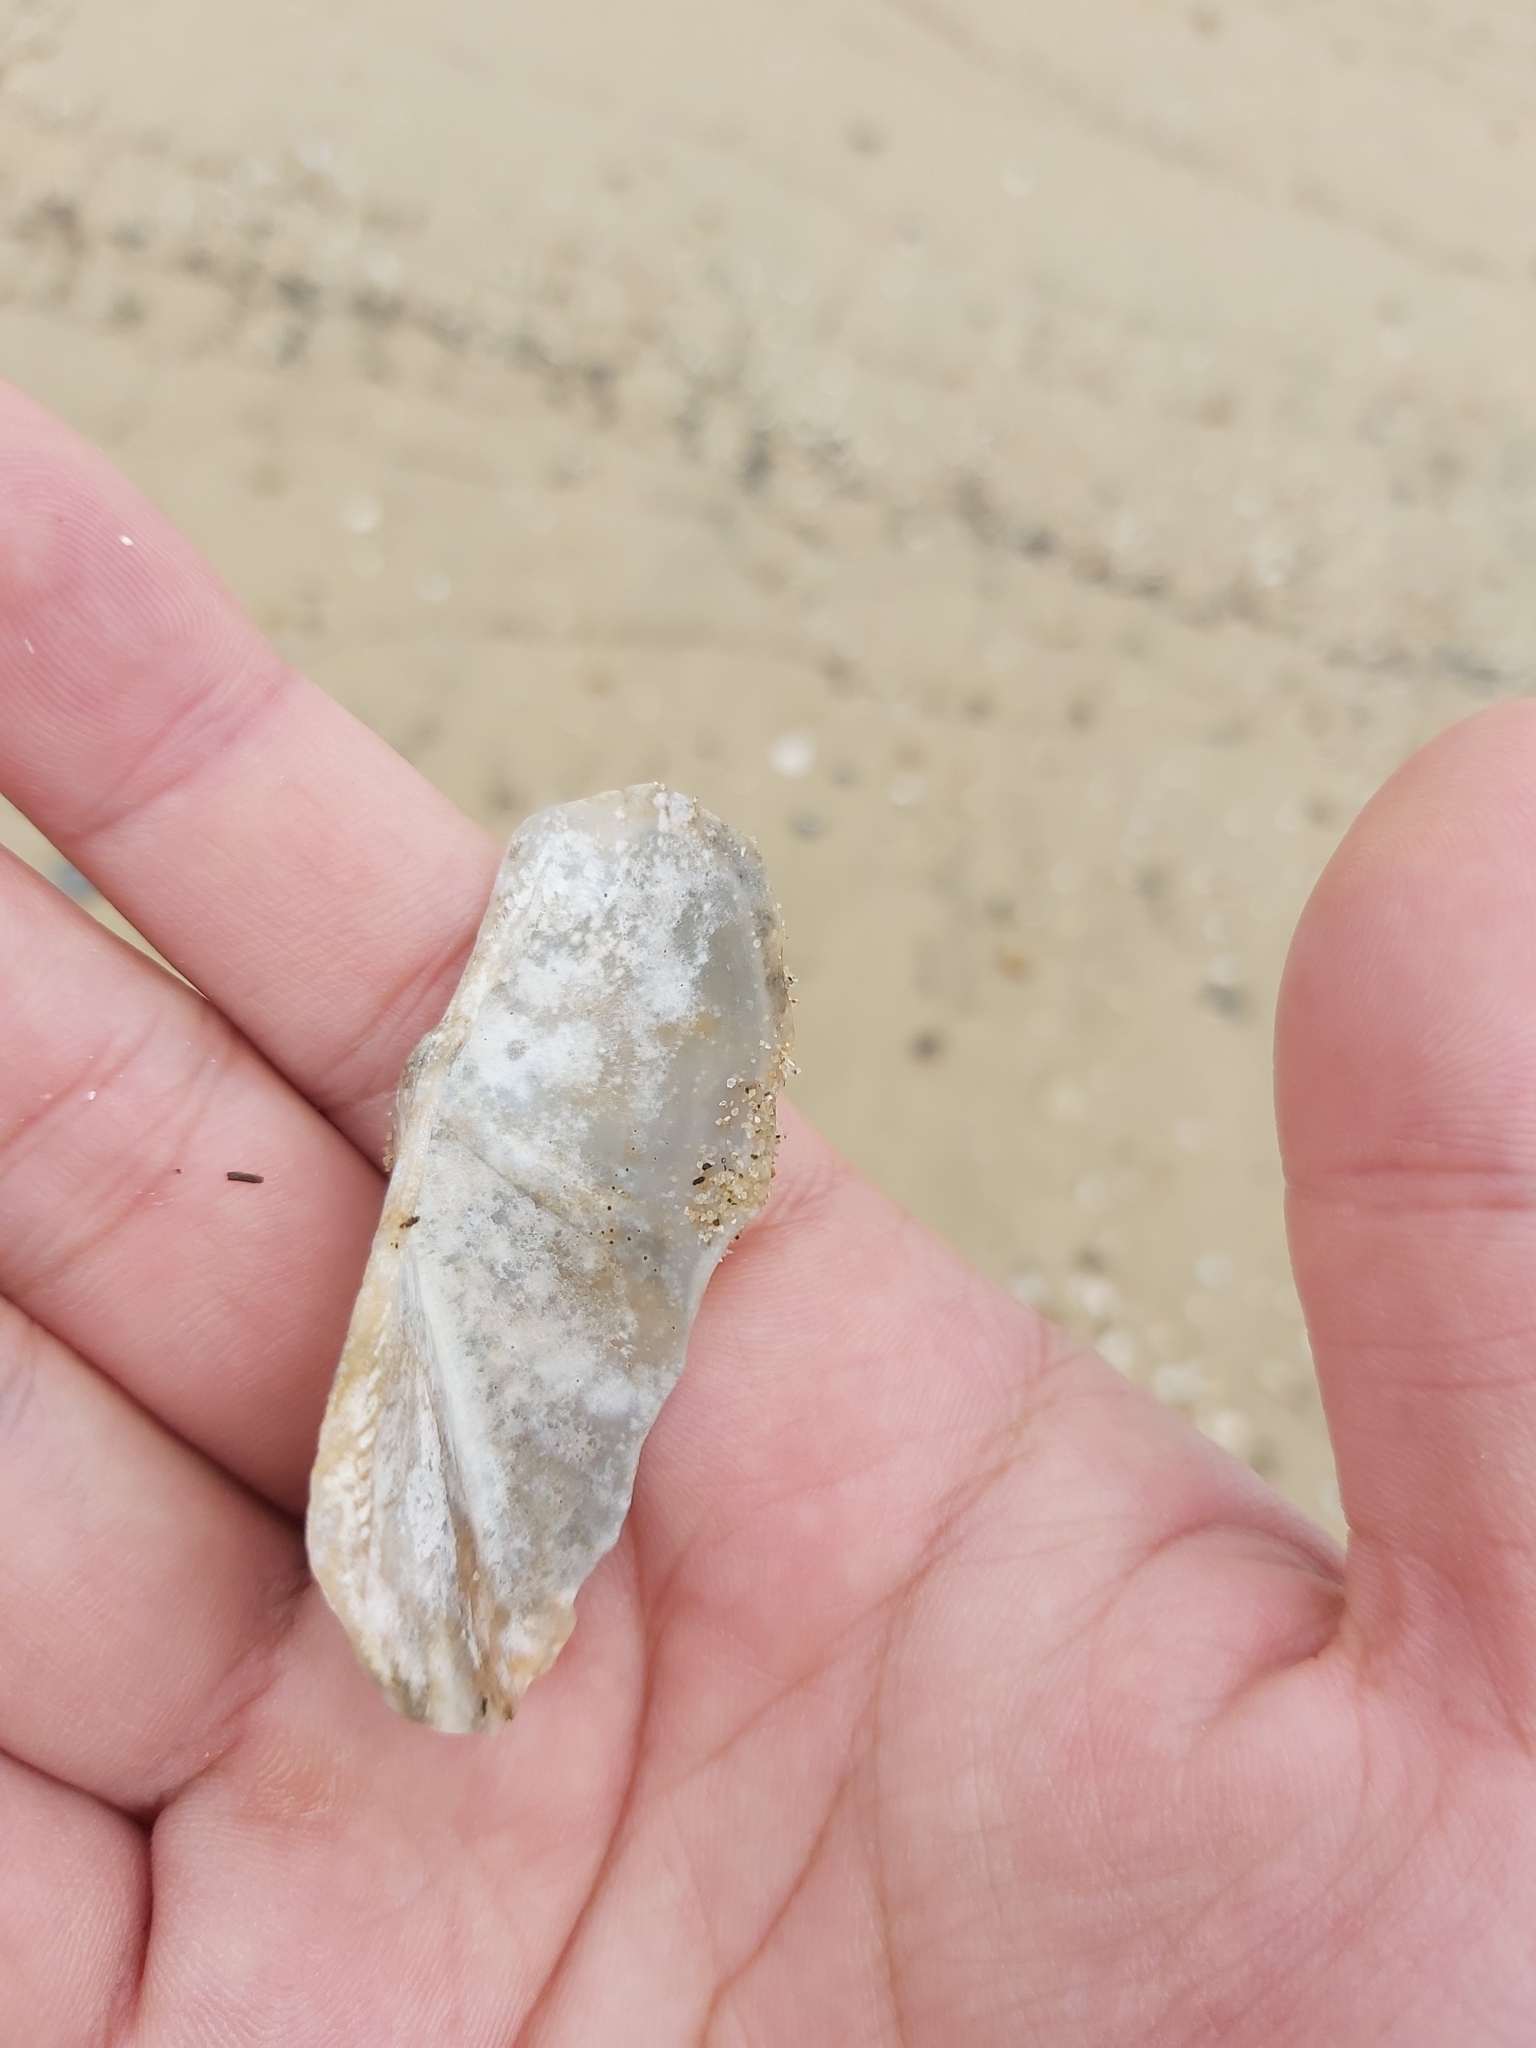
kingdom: Animalia
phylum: Mollusca
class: Bivalvia
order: Arcida
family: Arcidae
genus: Trisidos
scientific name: Trisidos tortuosa
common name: Propeller ark
